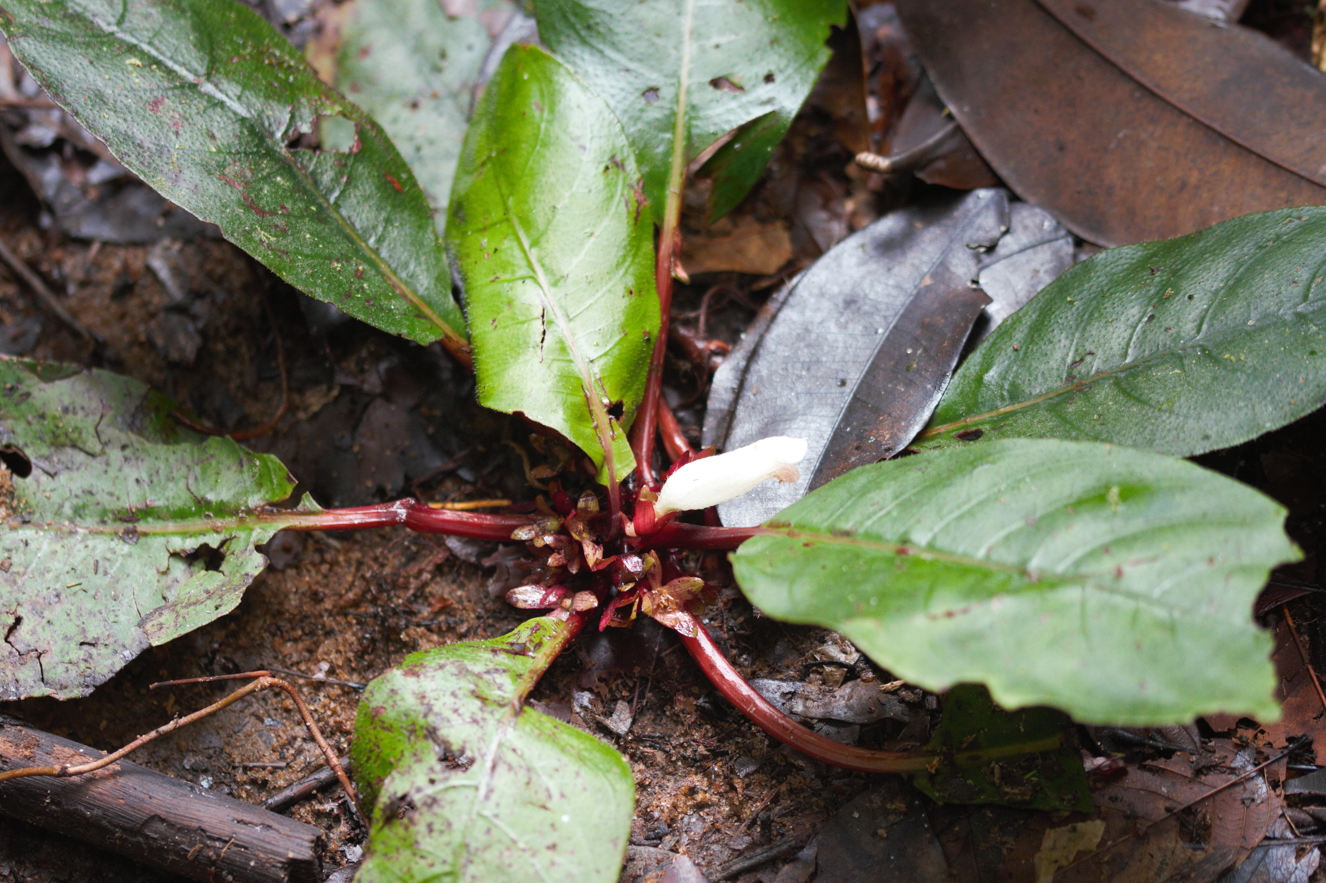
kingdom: Plantae
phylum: Tracheophyta
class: Magnoliopsida
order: Lamiales
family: Gesneriaceae
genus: Centrosolenia
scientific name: Centrosolenia densa
